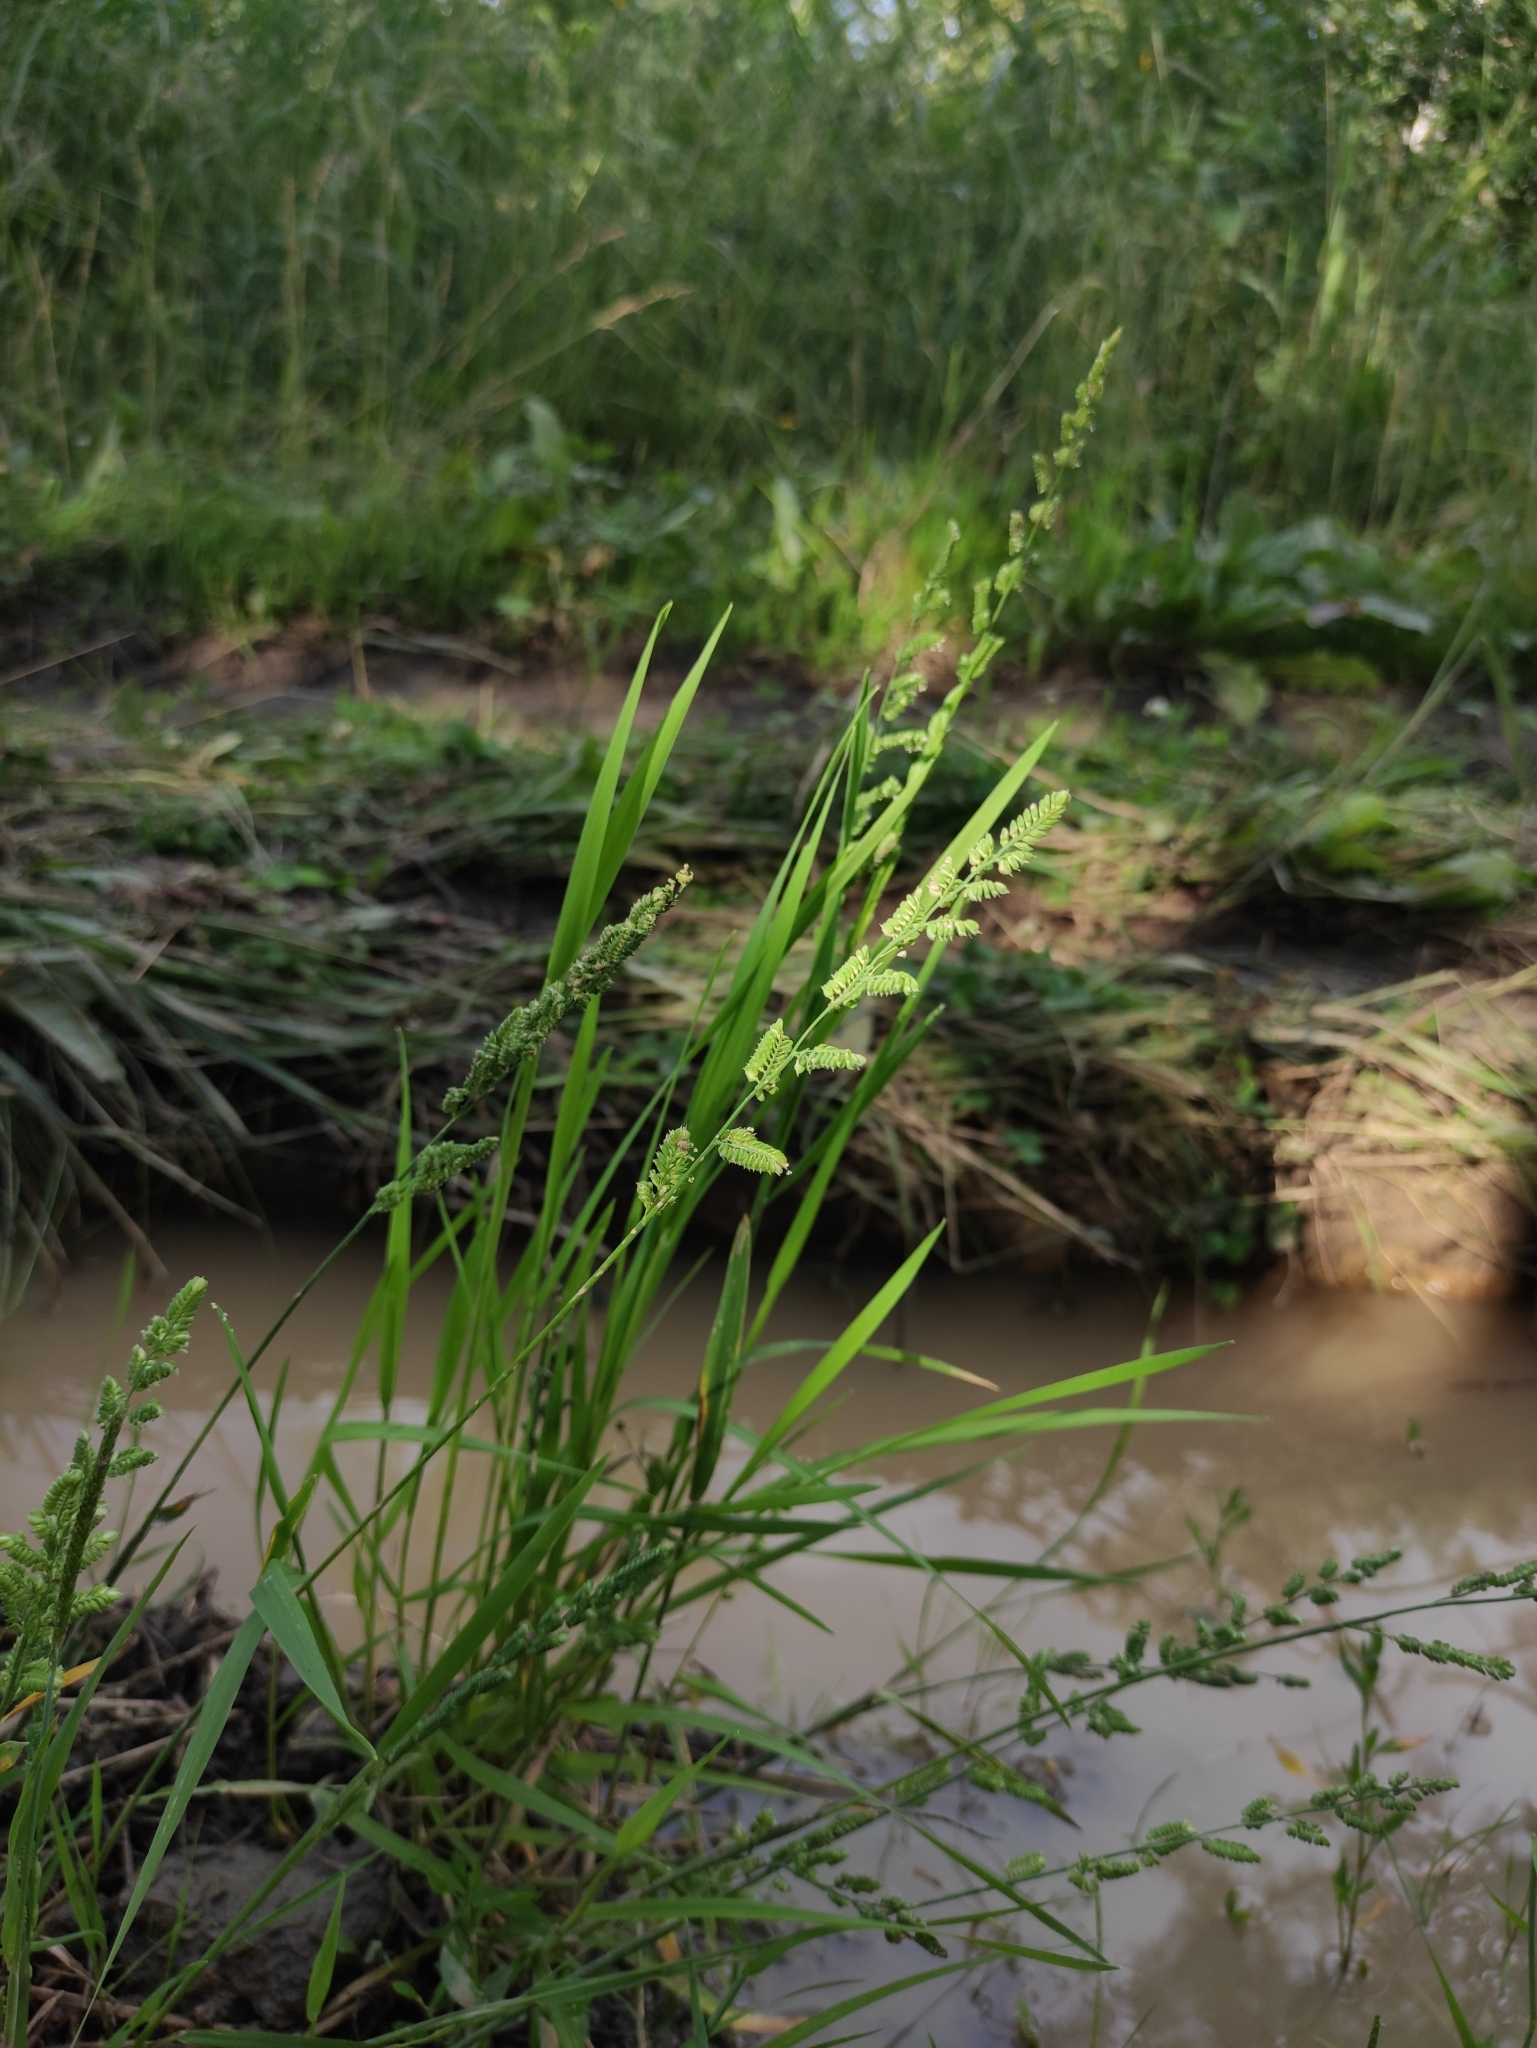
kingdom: Plantae
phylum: Tracheophyta
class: Liliopsida
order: Poales
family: Poaceae
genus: Beckmannia
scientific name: Beckmannia syzigachne
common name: American slough-grass
